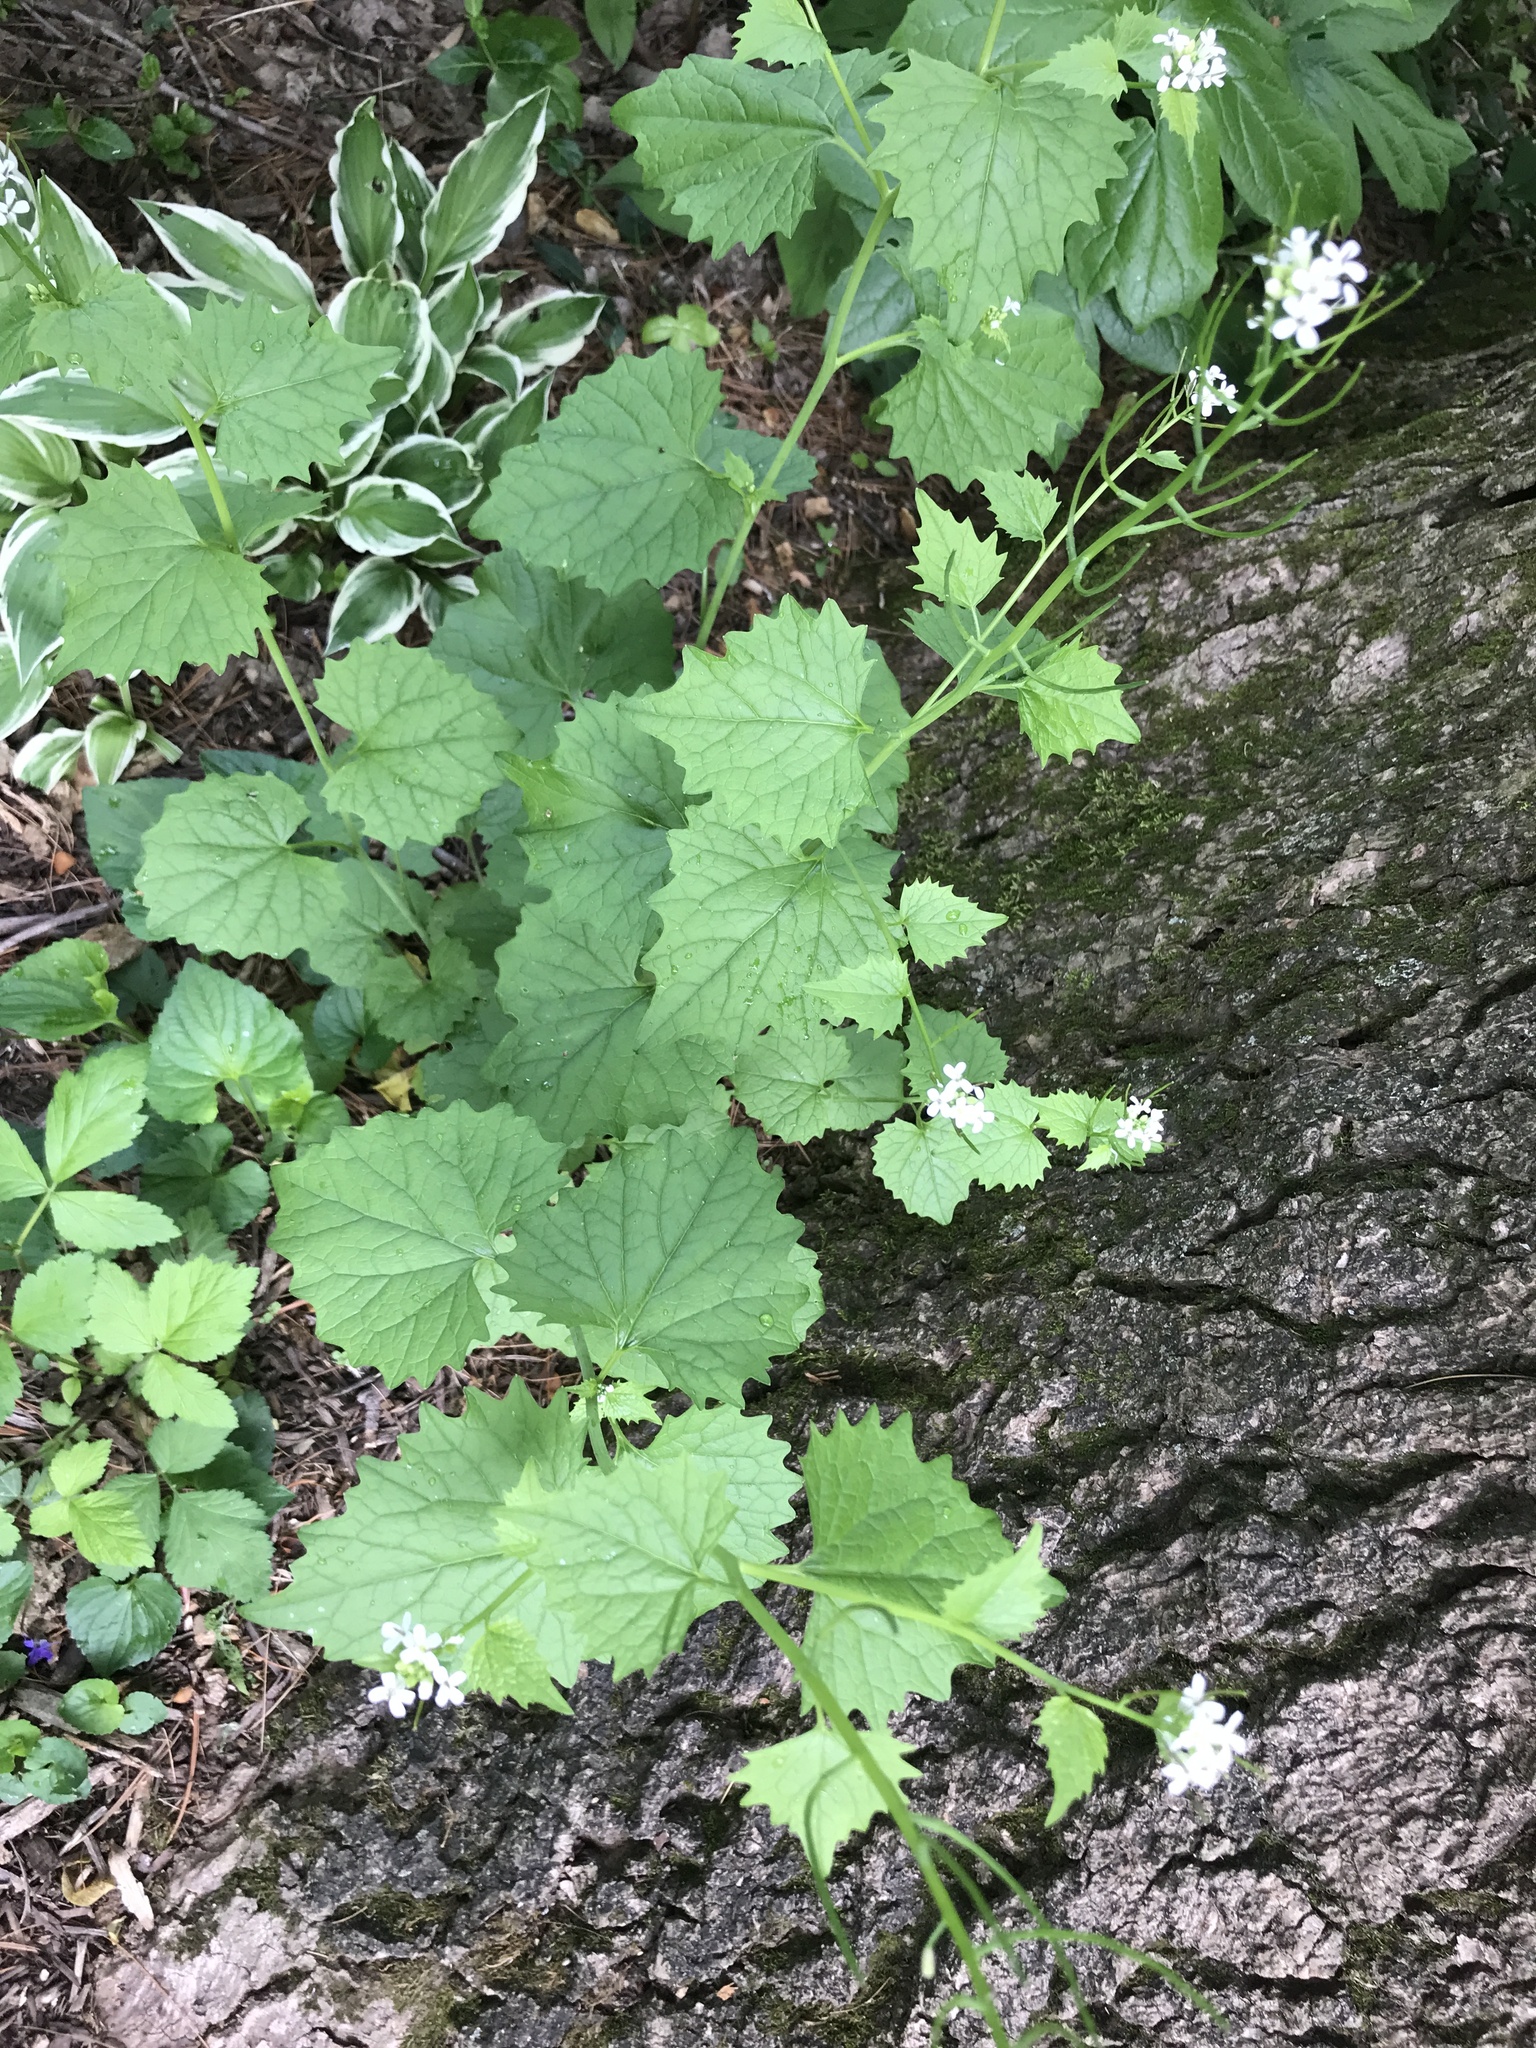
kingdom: Plantae
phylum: Tracheophyta
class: Magnoliopsida
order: Brassicales
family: Brassicaceae
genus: Alliaria
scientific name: Alliaria petiolata
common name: Garlic mustard
